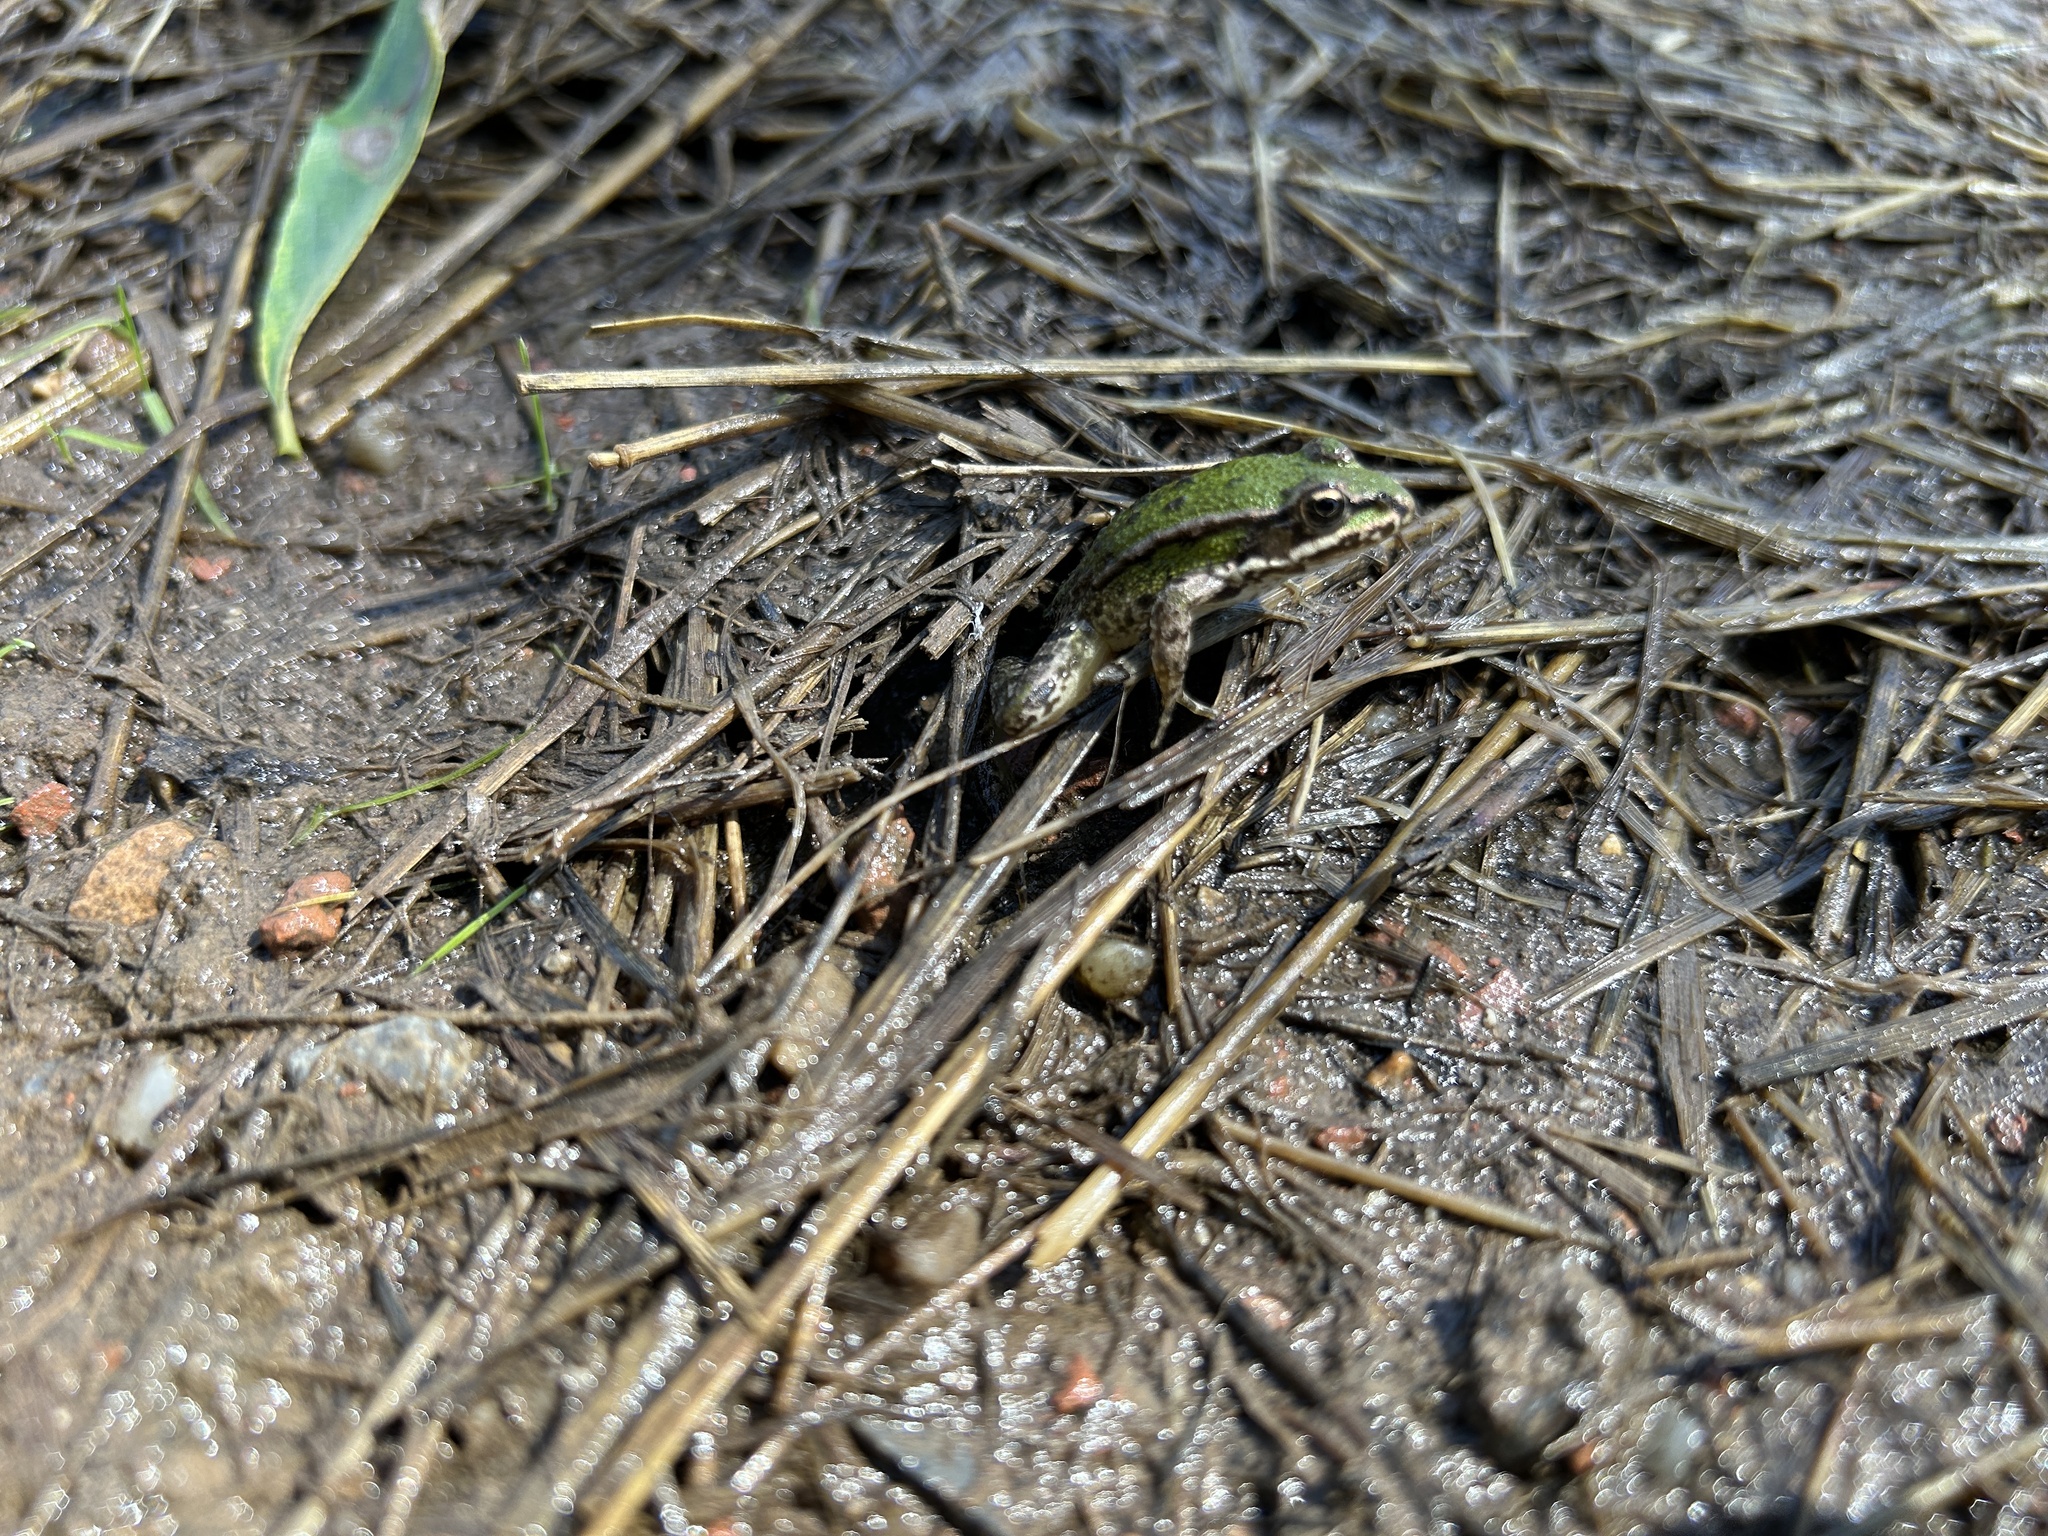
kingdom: Animalia
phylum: Chordata
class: Amphibia
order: Anura
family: Ranidae
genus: Pelophylax
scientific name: Pelophylax
